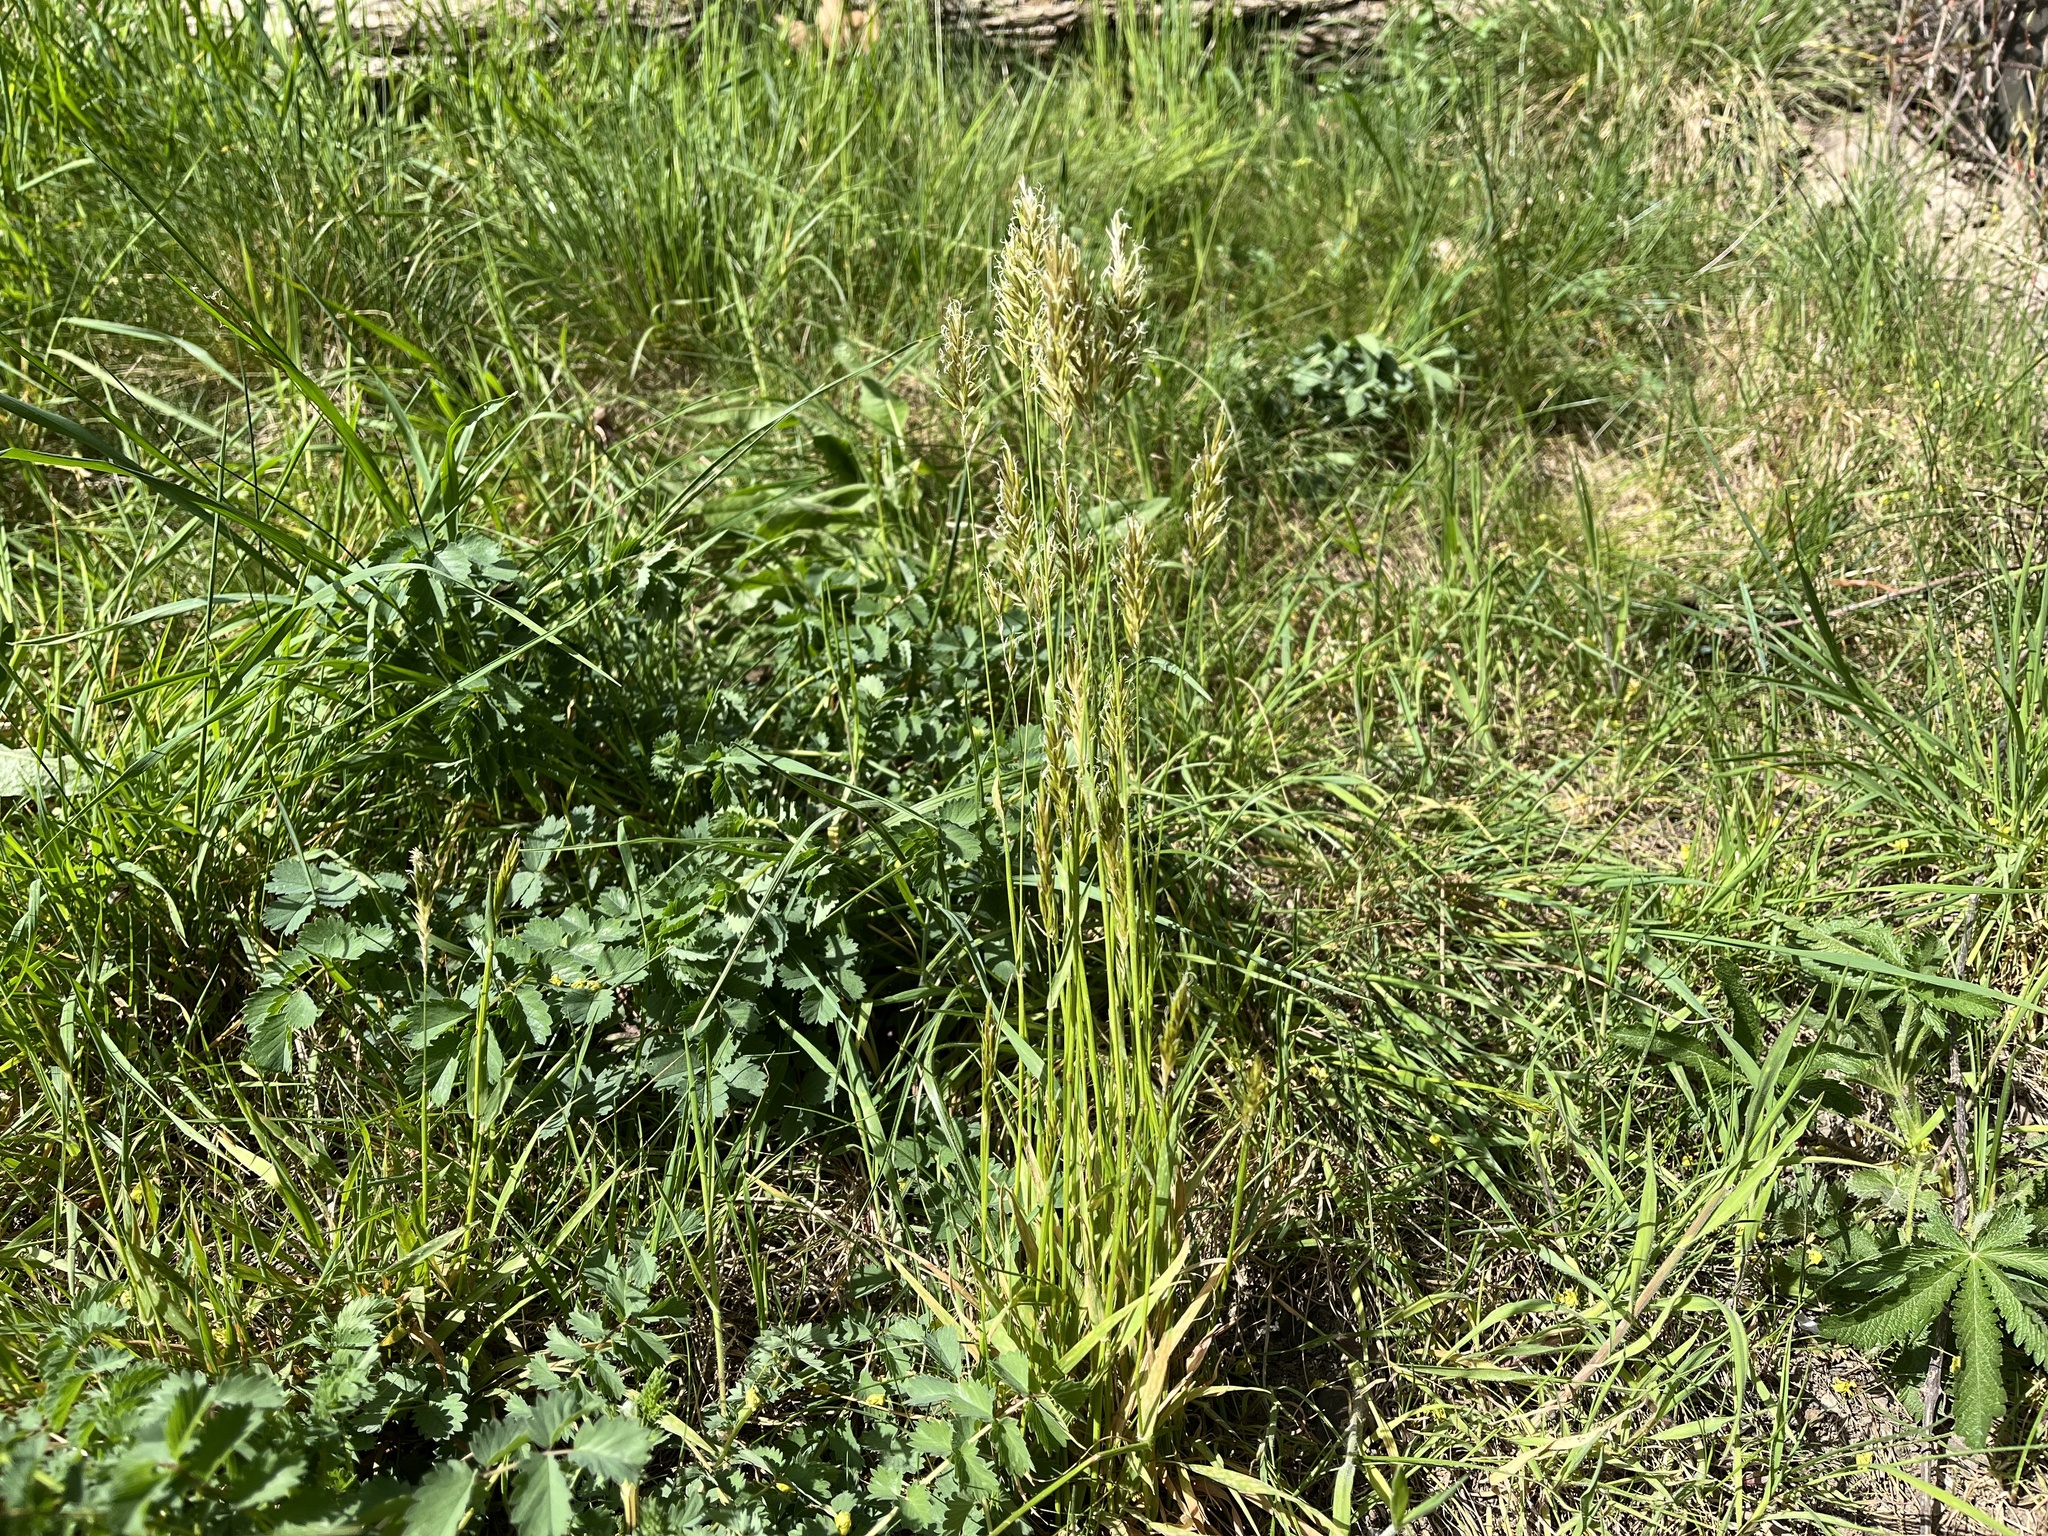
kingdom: Plantae
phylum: Tracheophyta
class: Liliopsida
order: Poales
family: Poaceae
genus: Anthoxanthum
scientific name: Anthoxanthum odoratum
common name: Sweet vernalgrass
